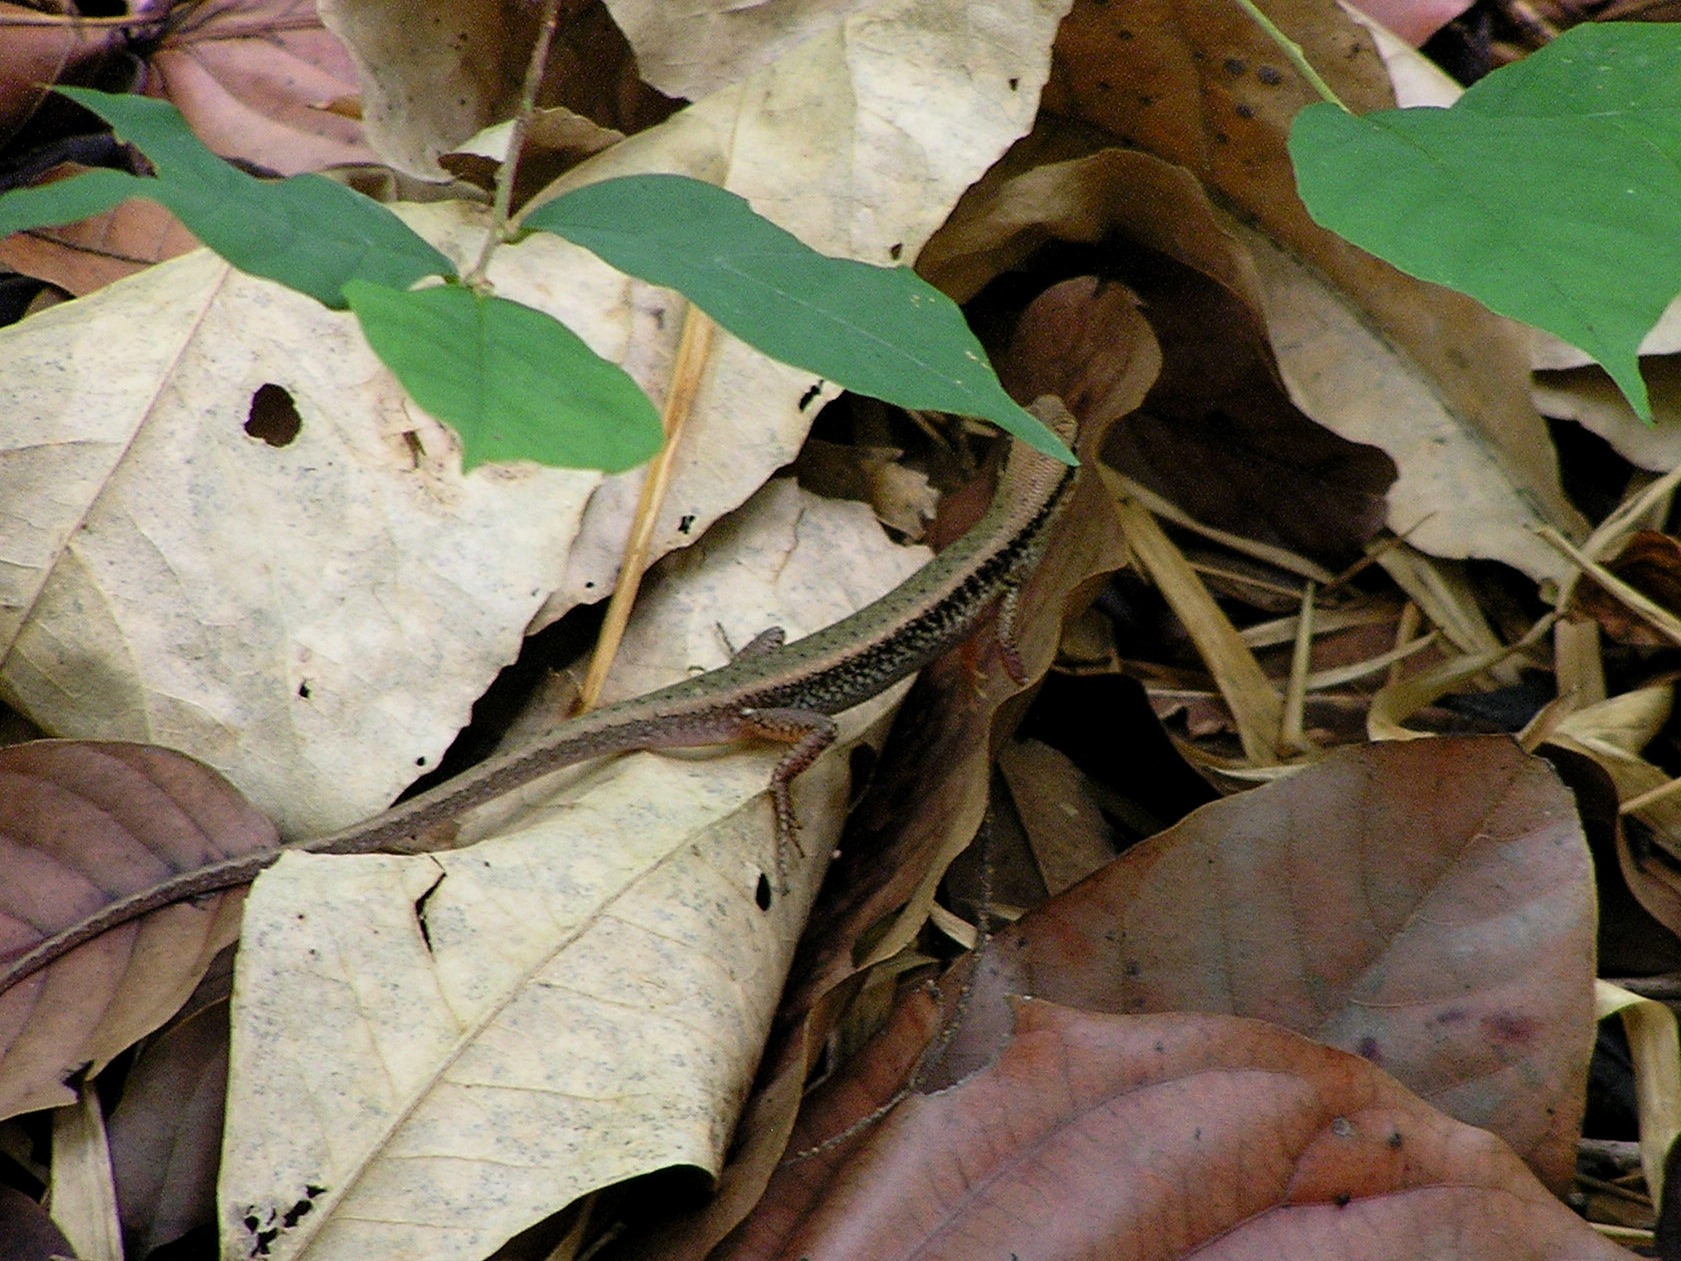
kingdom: Animalia
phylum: Chordata
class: Squamata
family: Scincidae
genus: Sphenomorphus
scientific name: Sphenomorphus maculatus
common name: Maculated forest skink
